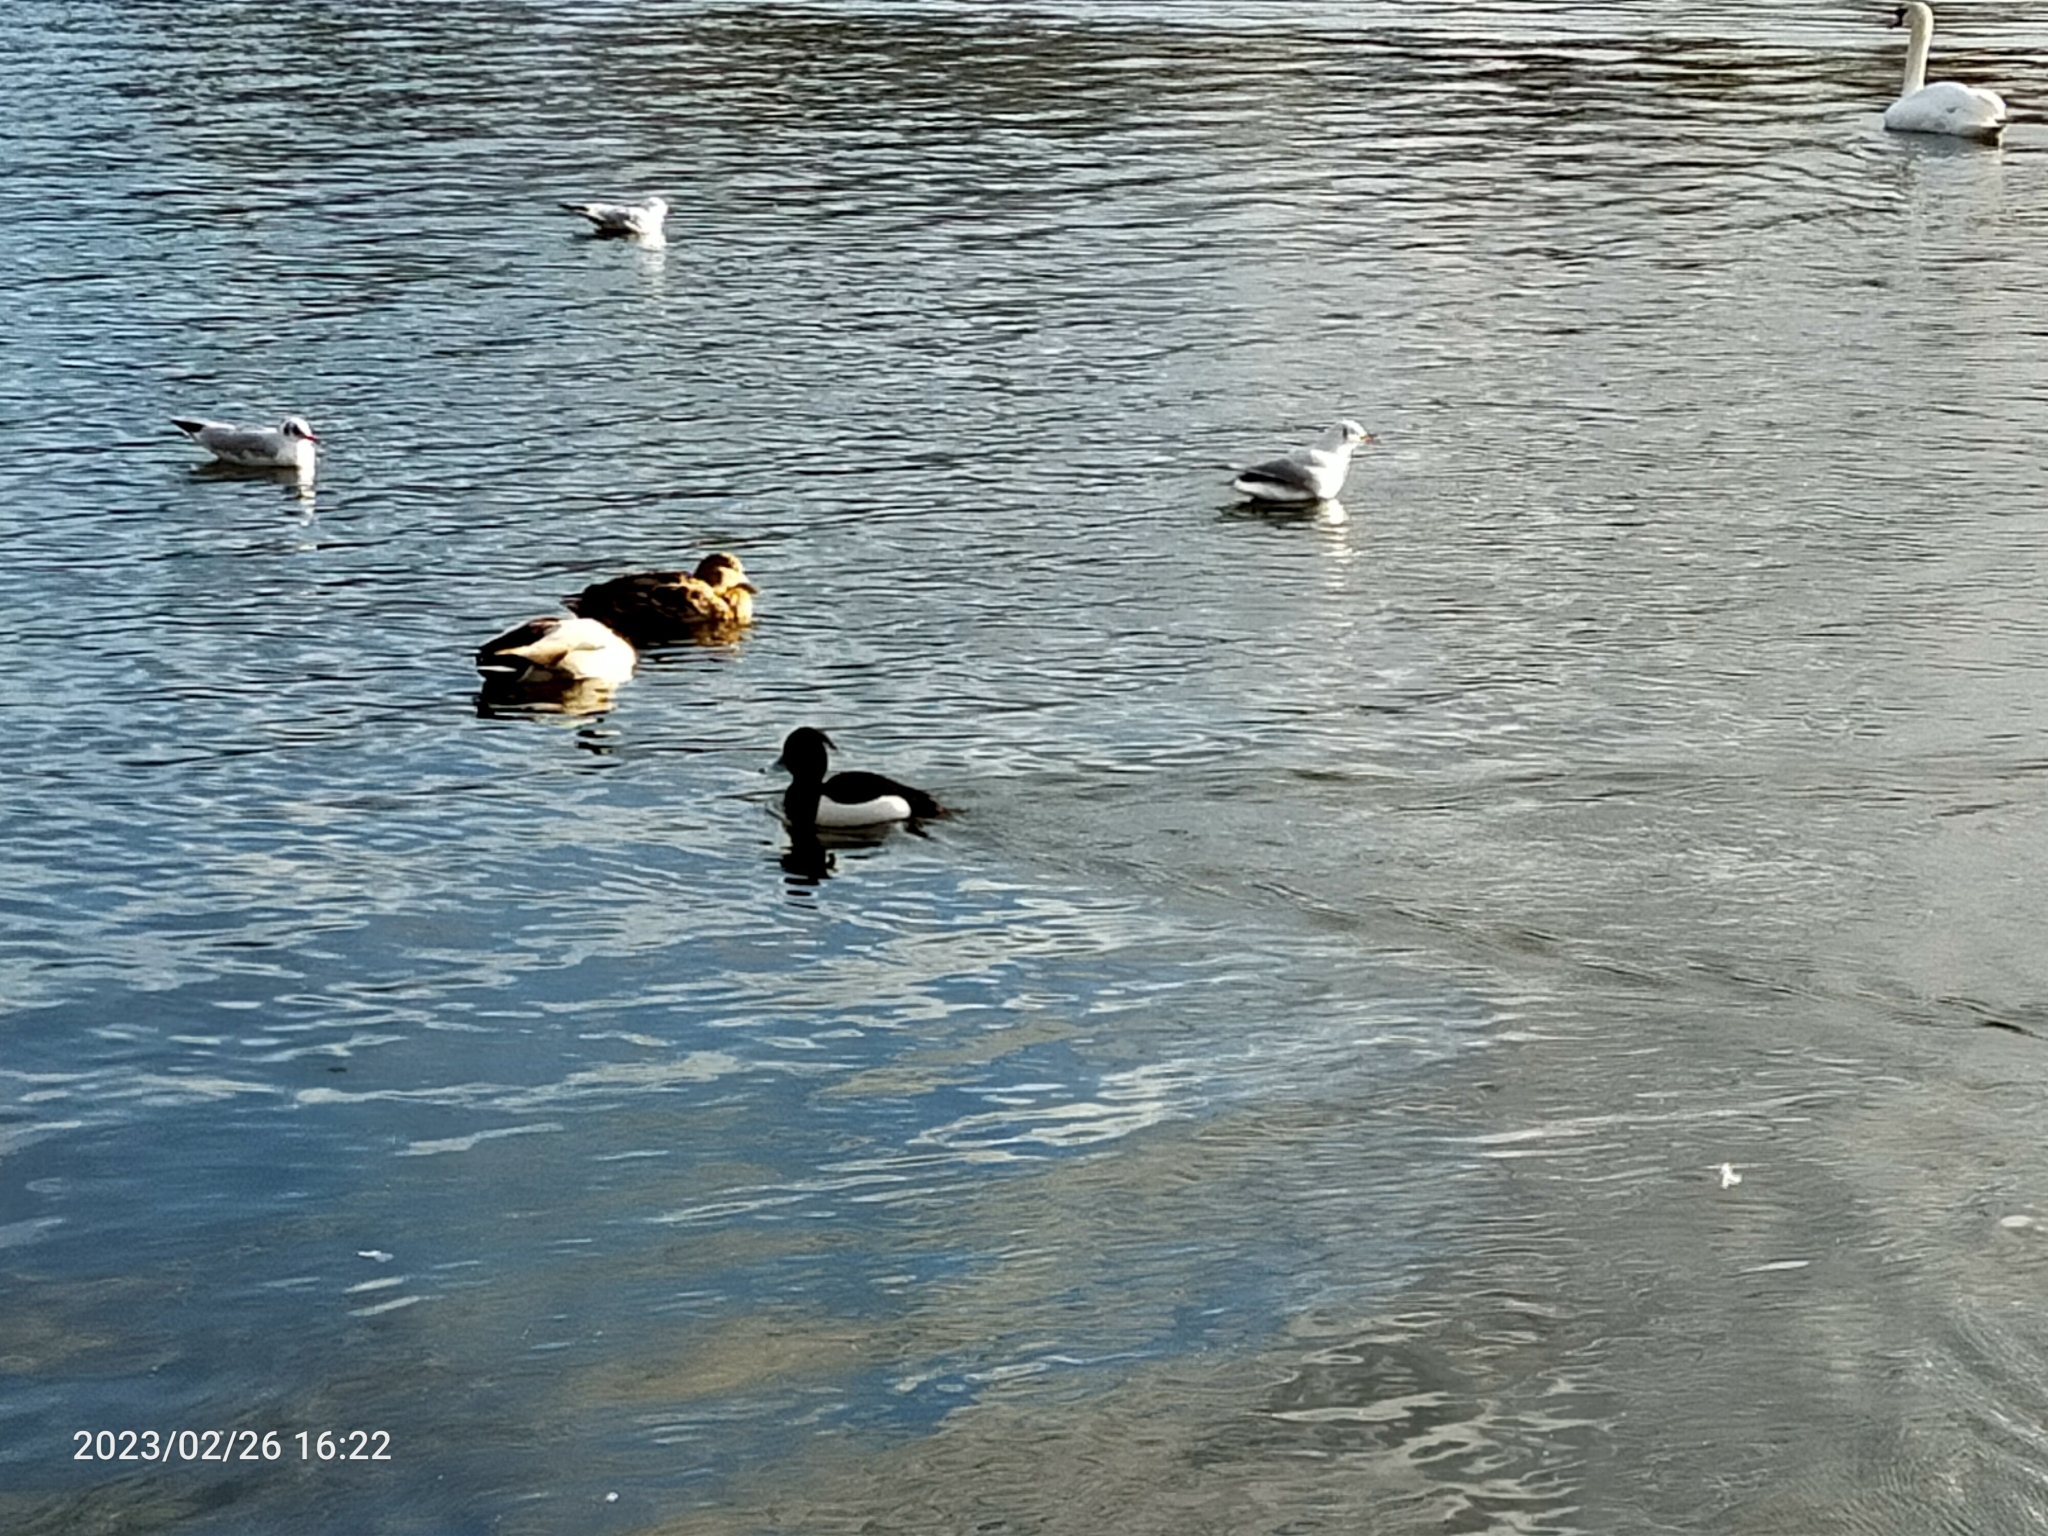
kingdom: Animalia
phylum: Chordata
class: Aves
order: Anseriformes
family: Anatidae
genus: Aythya
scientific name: Aythya fuligula
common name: Tufted duck
